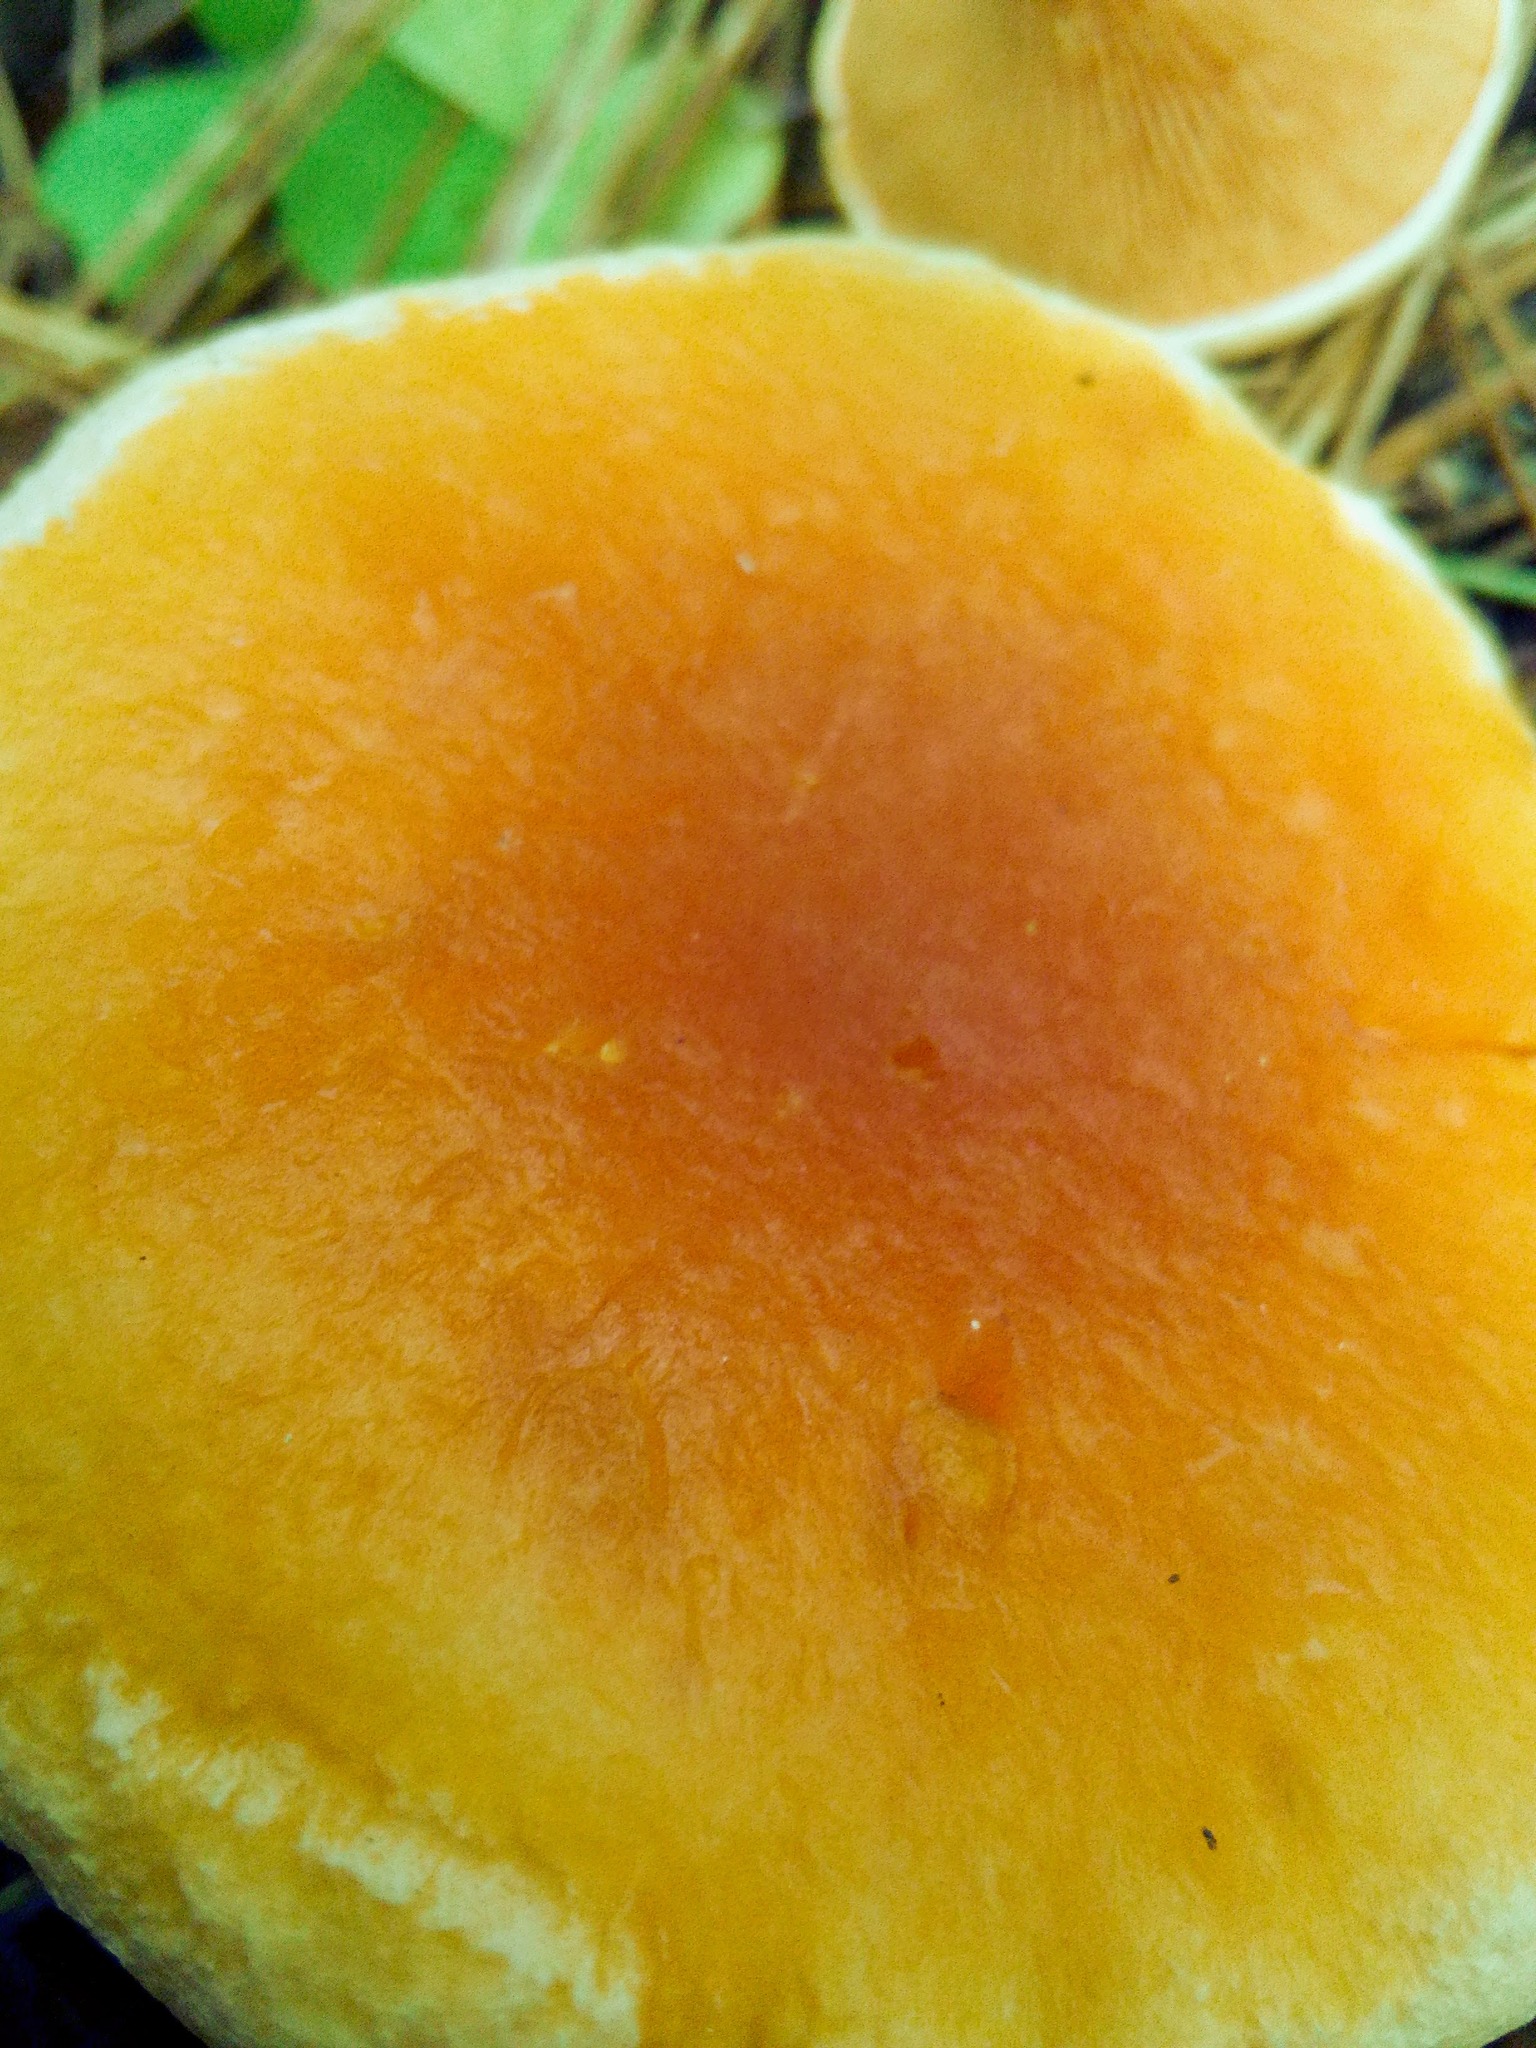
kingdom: Fungi
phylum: Basidiomycota
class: Agaricomycetes
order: Boletales
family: Hygrophoropsidaceae
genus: Hygrophoropsis
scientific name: Hygrophoropsis aurantiaca
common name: False chanterelle
